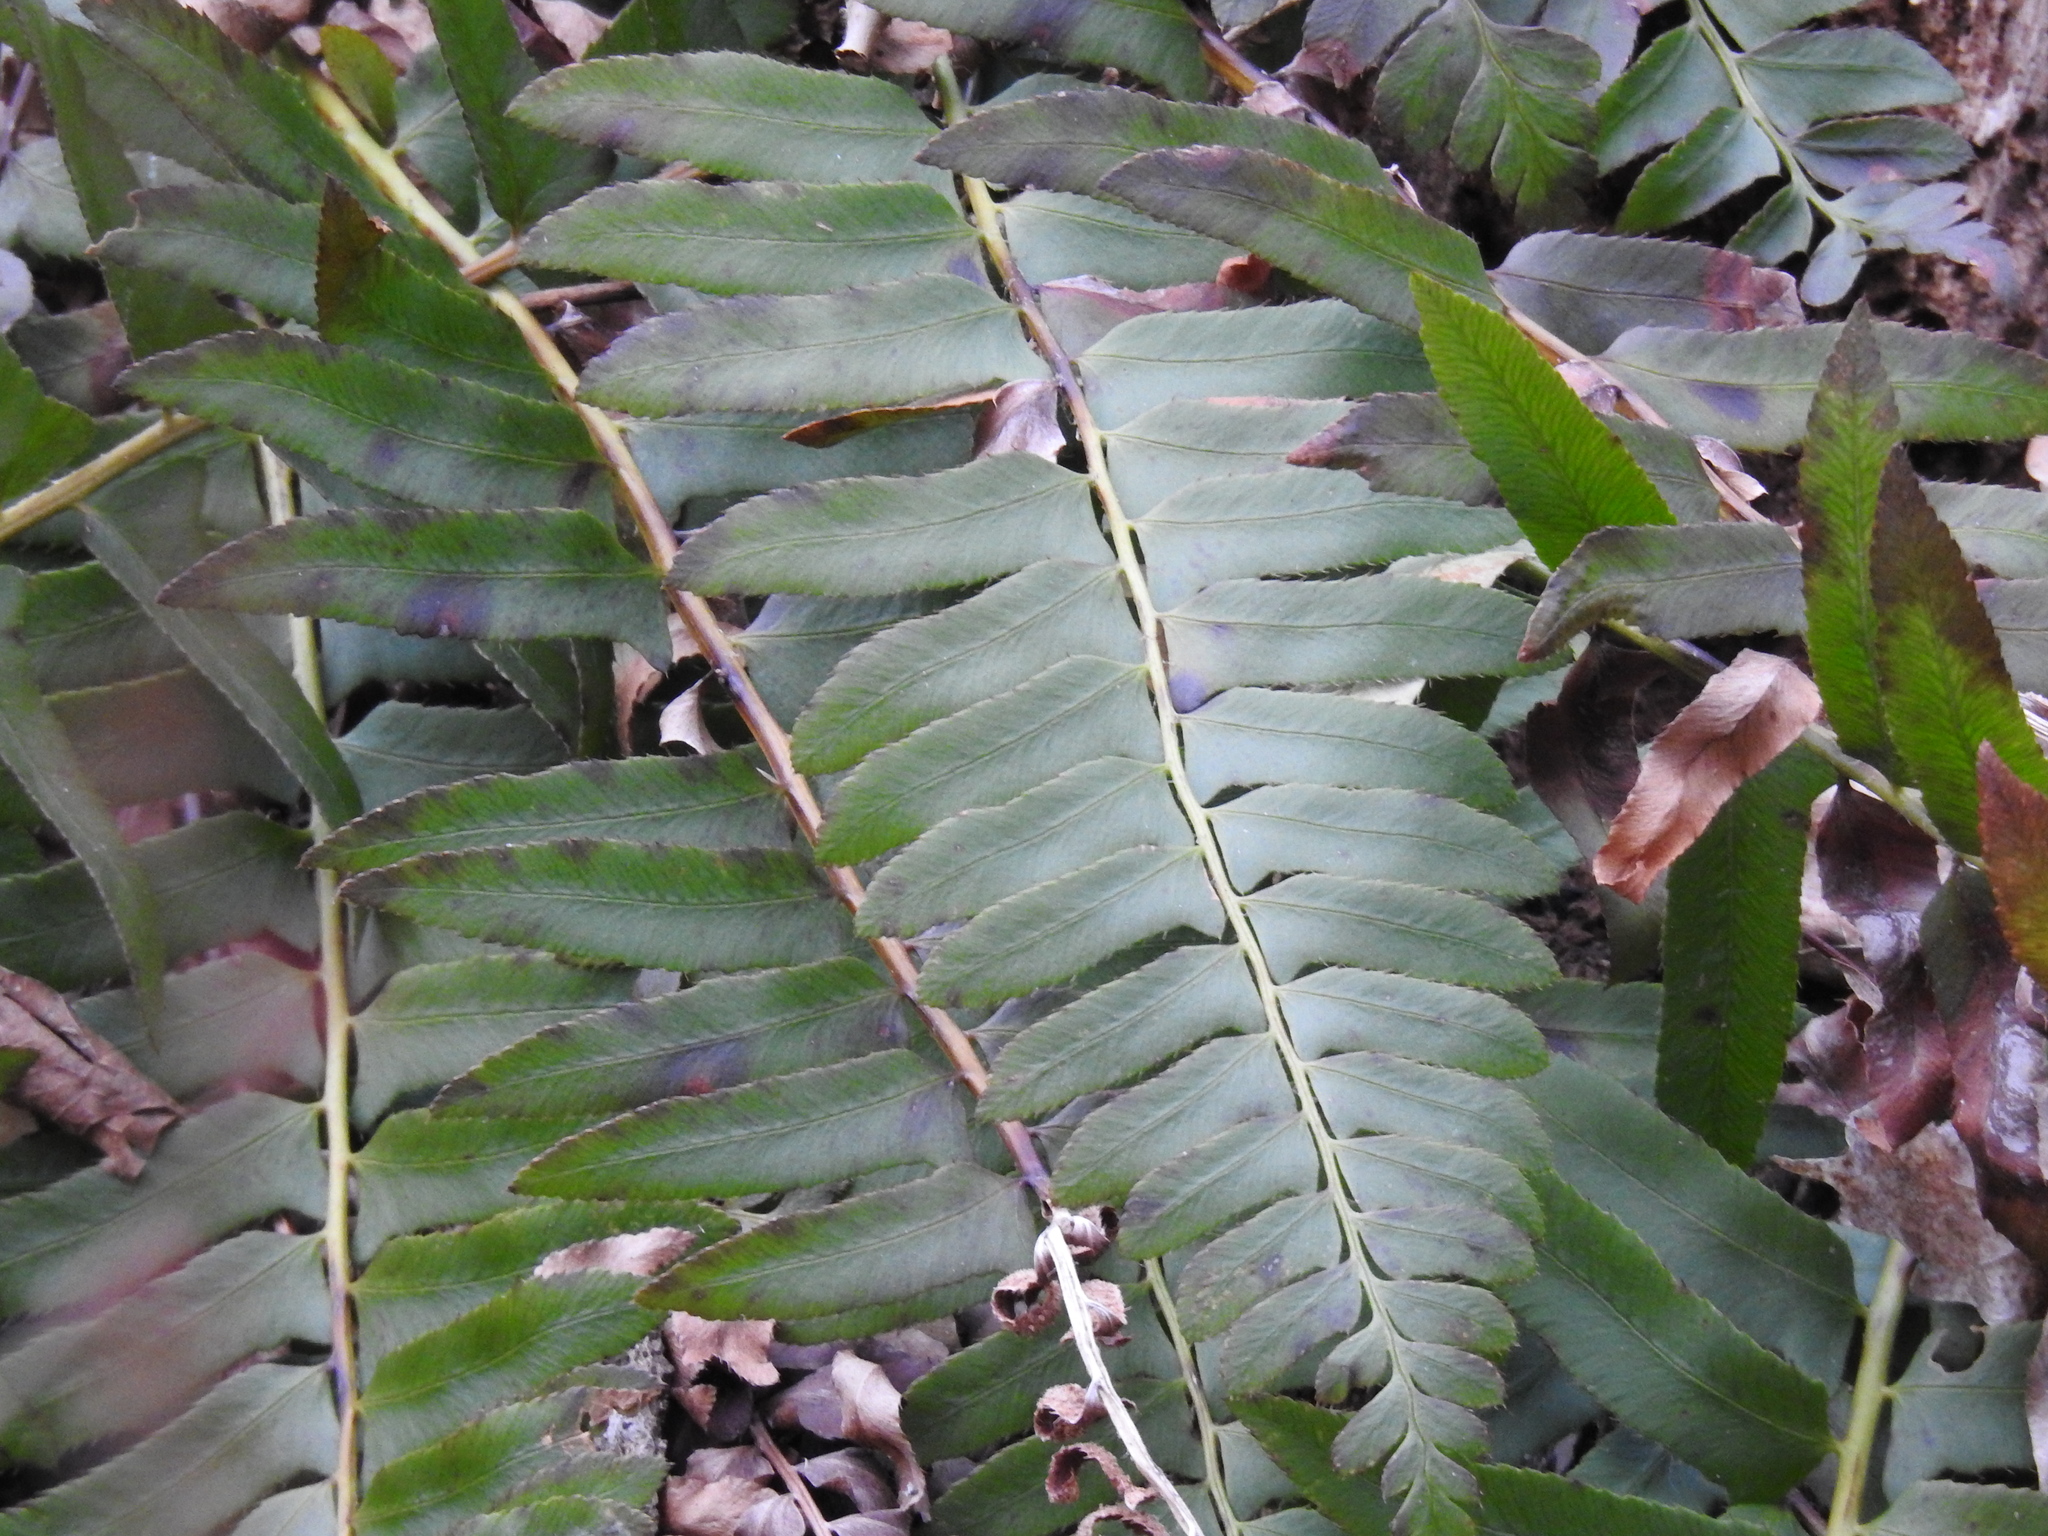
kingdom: Plantae
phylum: Tracheophyta
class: Polypodiopsida
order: Polypodiales
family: Dryopteridaceae
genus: Polystichum
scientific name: Polystichum acrostichoides
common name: Christmas fern
